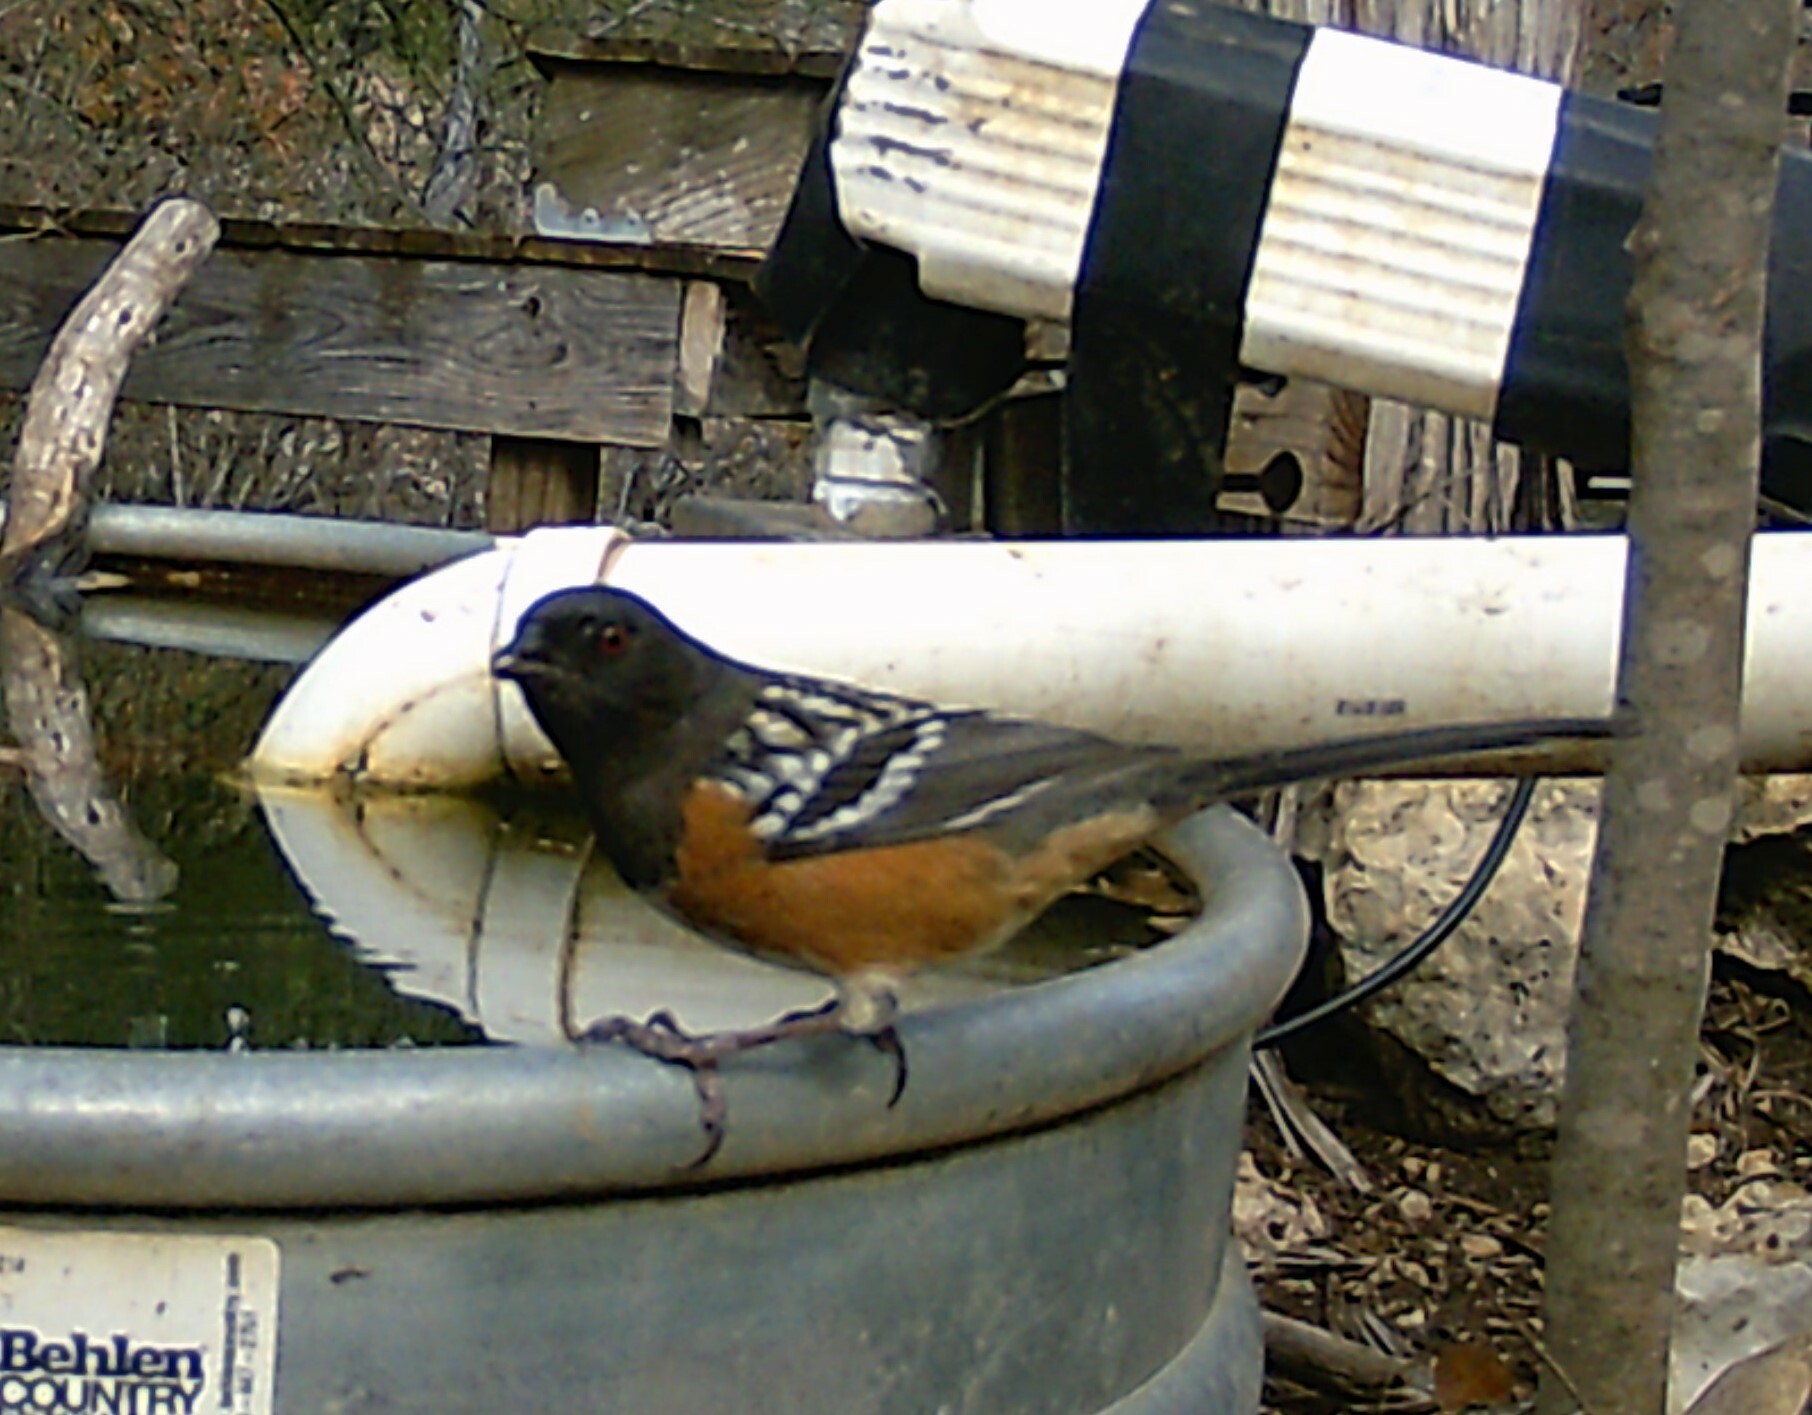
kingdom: Animalia
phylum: Chordata
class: Aves
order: Passeriformes
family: Passerellidae
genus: Pipilo
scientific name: Pipilo maculatus
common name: Spotted towhee
